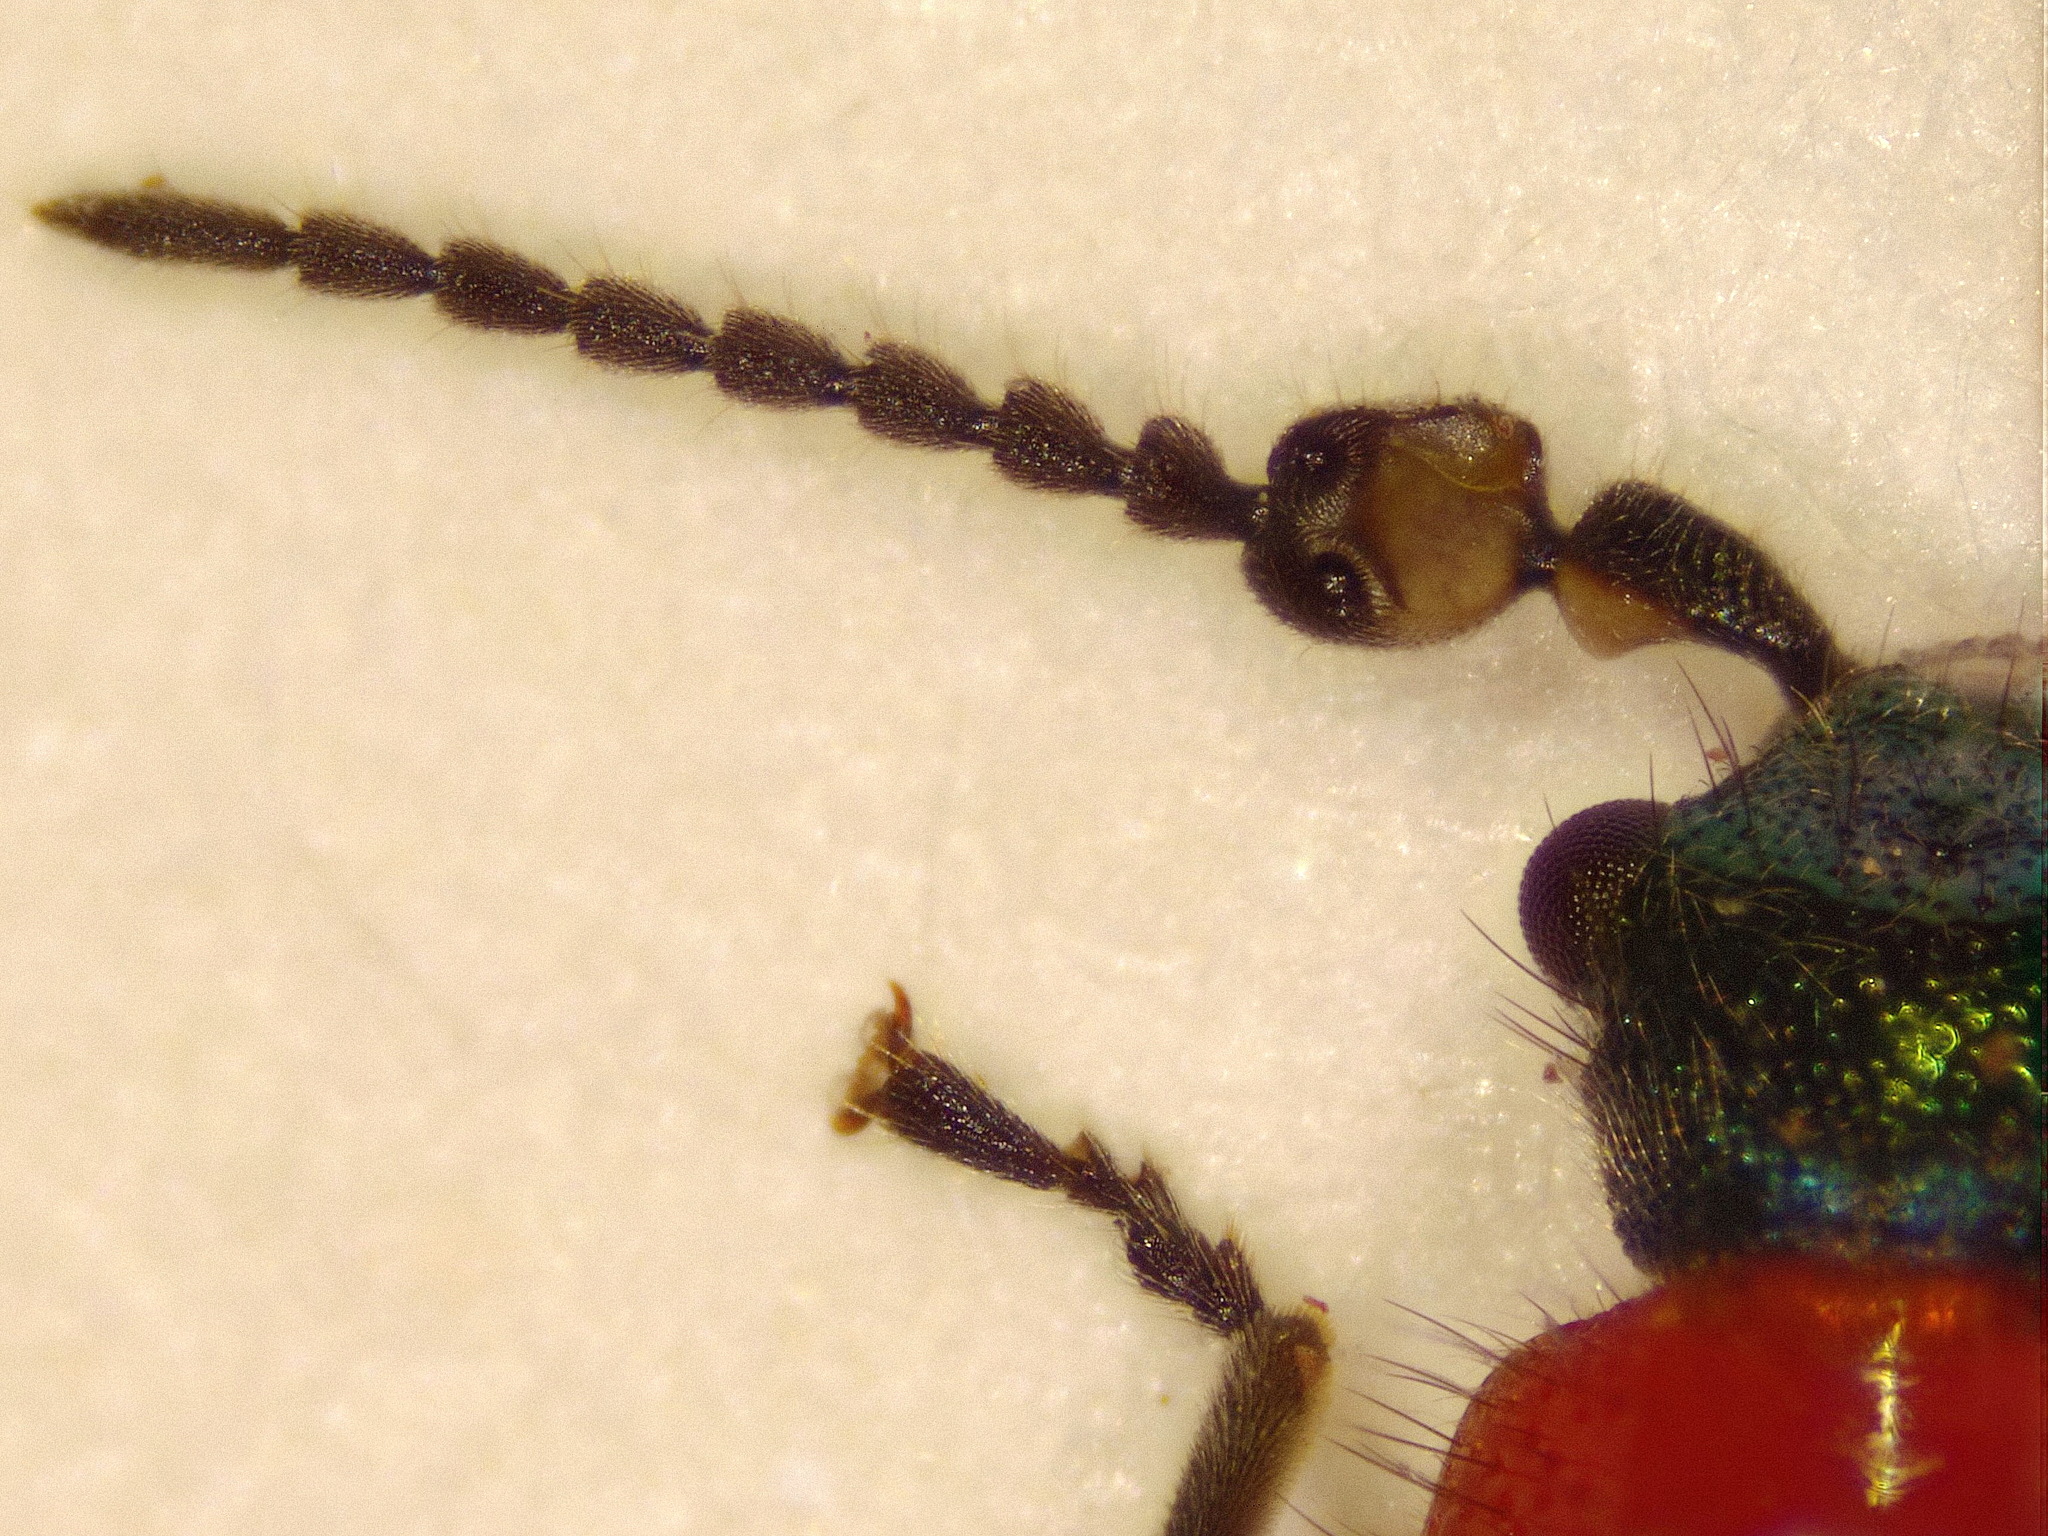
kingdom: Animalia
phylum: Arthropoda
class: Insecta
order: Coleoptera
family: Melyridae
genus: Dicranolaius
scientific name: Dicranolaius bellulus
